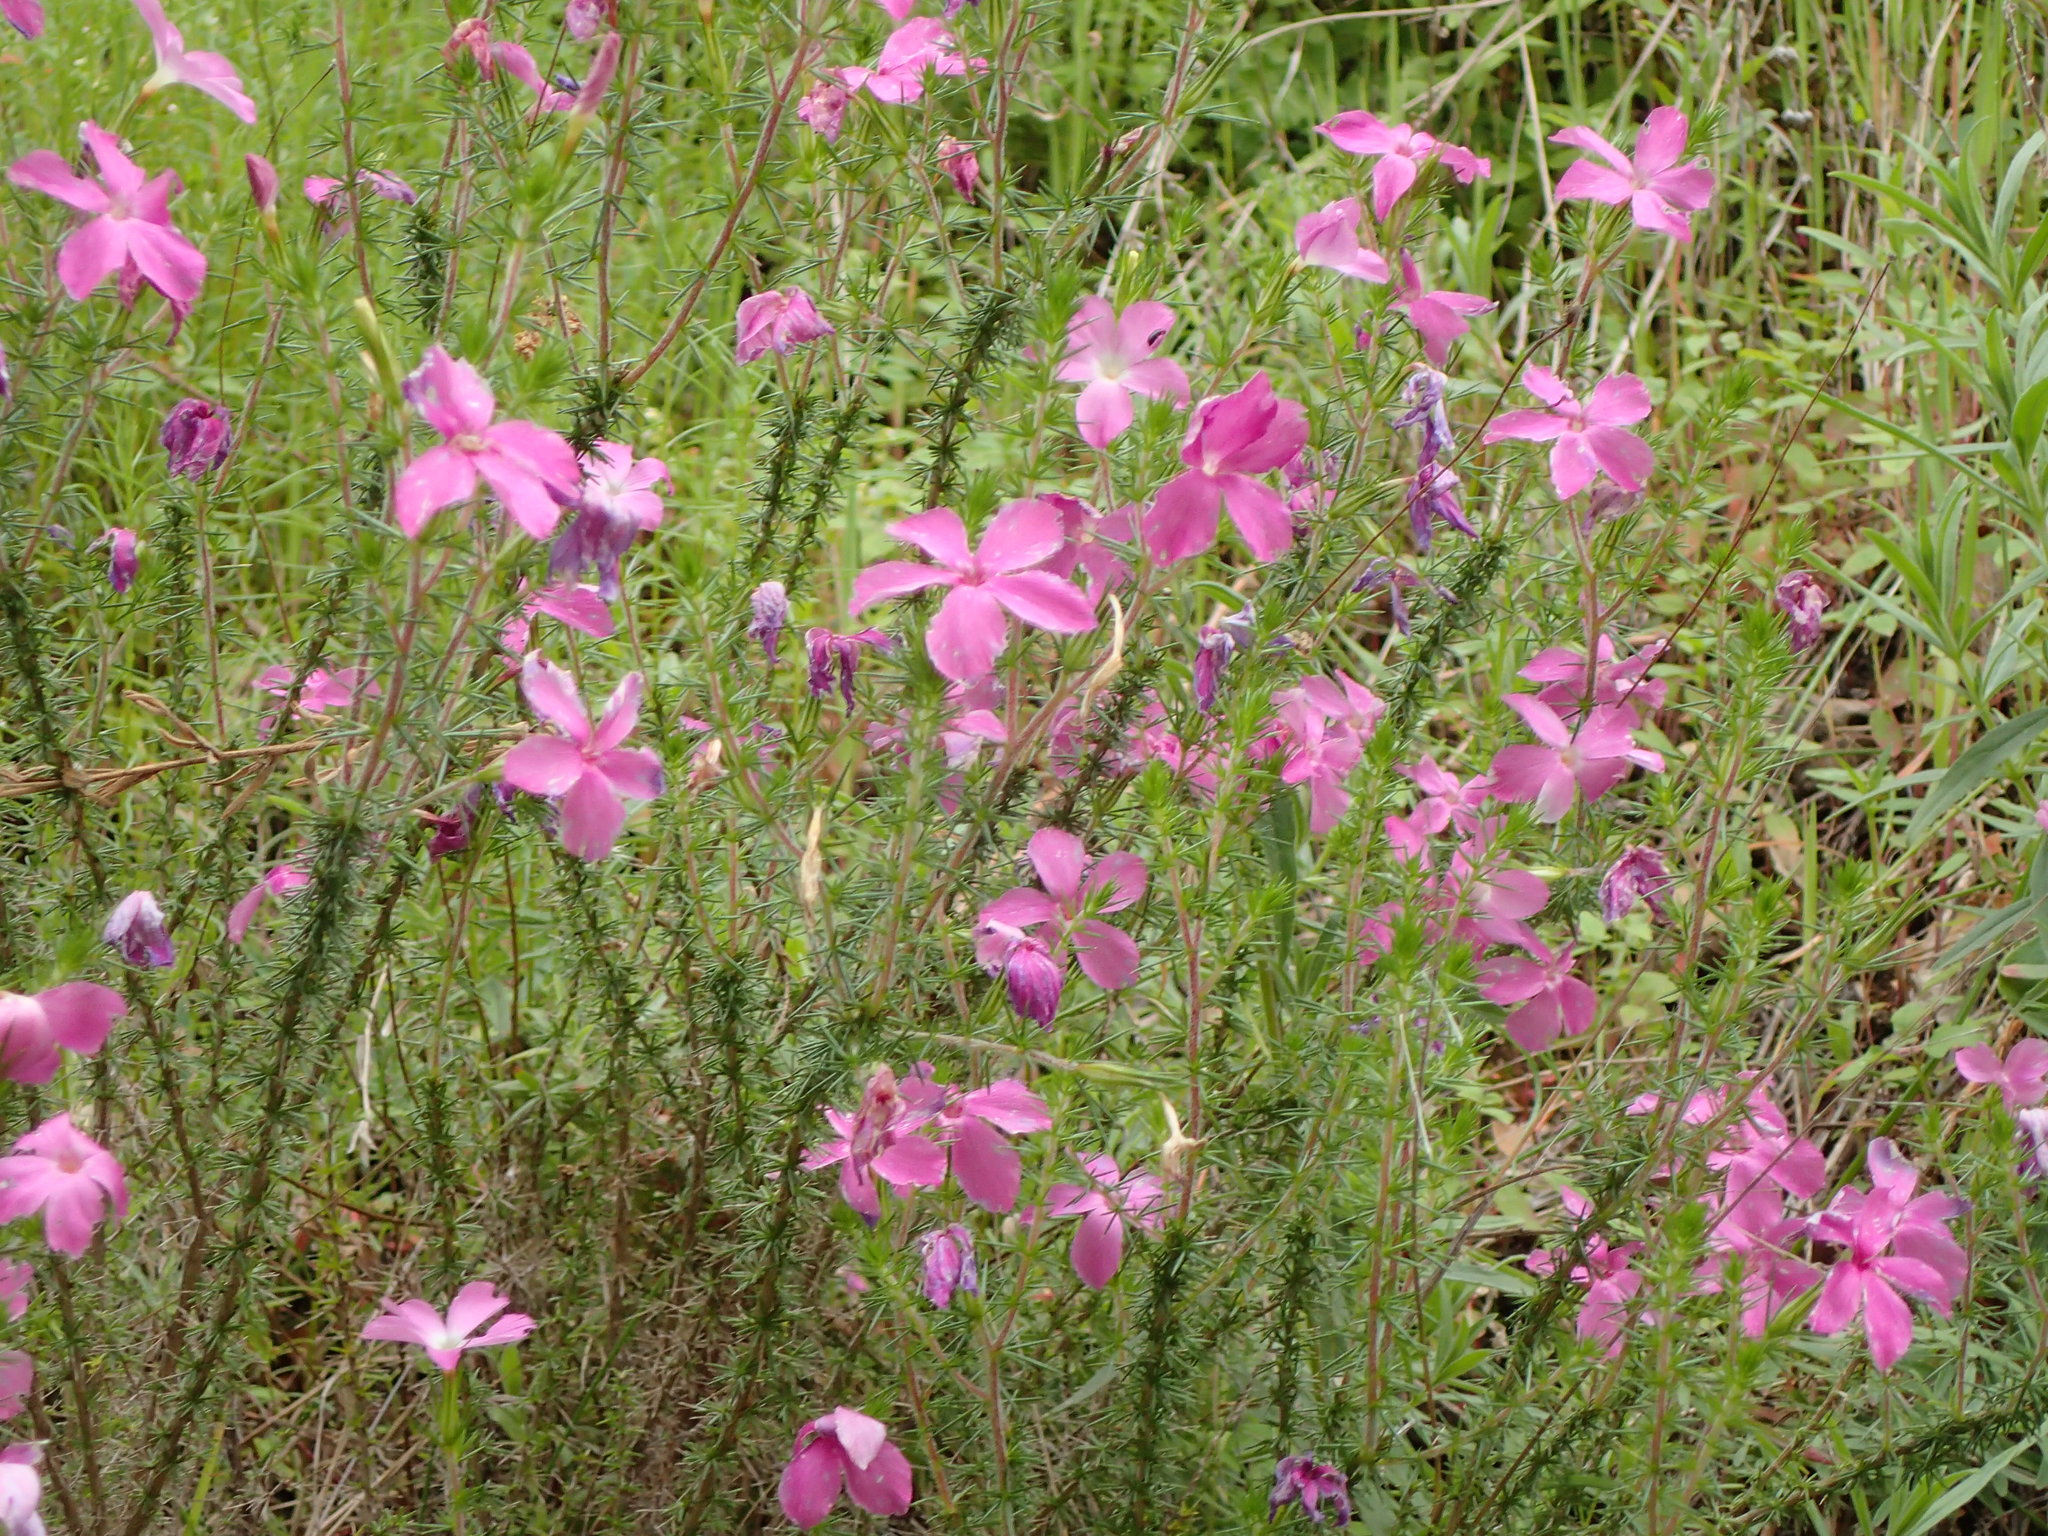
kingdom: Plantae
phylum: Tracheophyta
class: Magnoliopsida
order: Ericales
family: Polemoniaceae
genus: Linanthus
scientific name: Linanthus californicus
